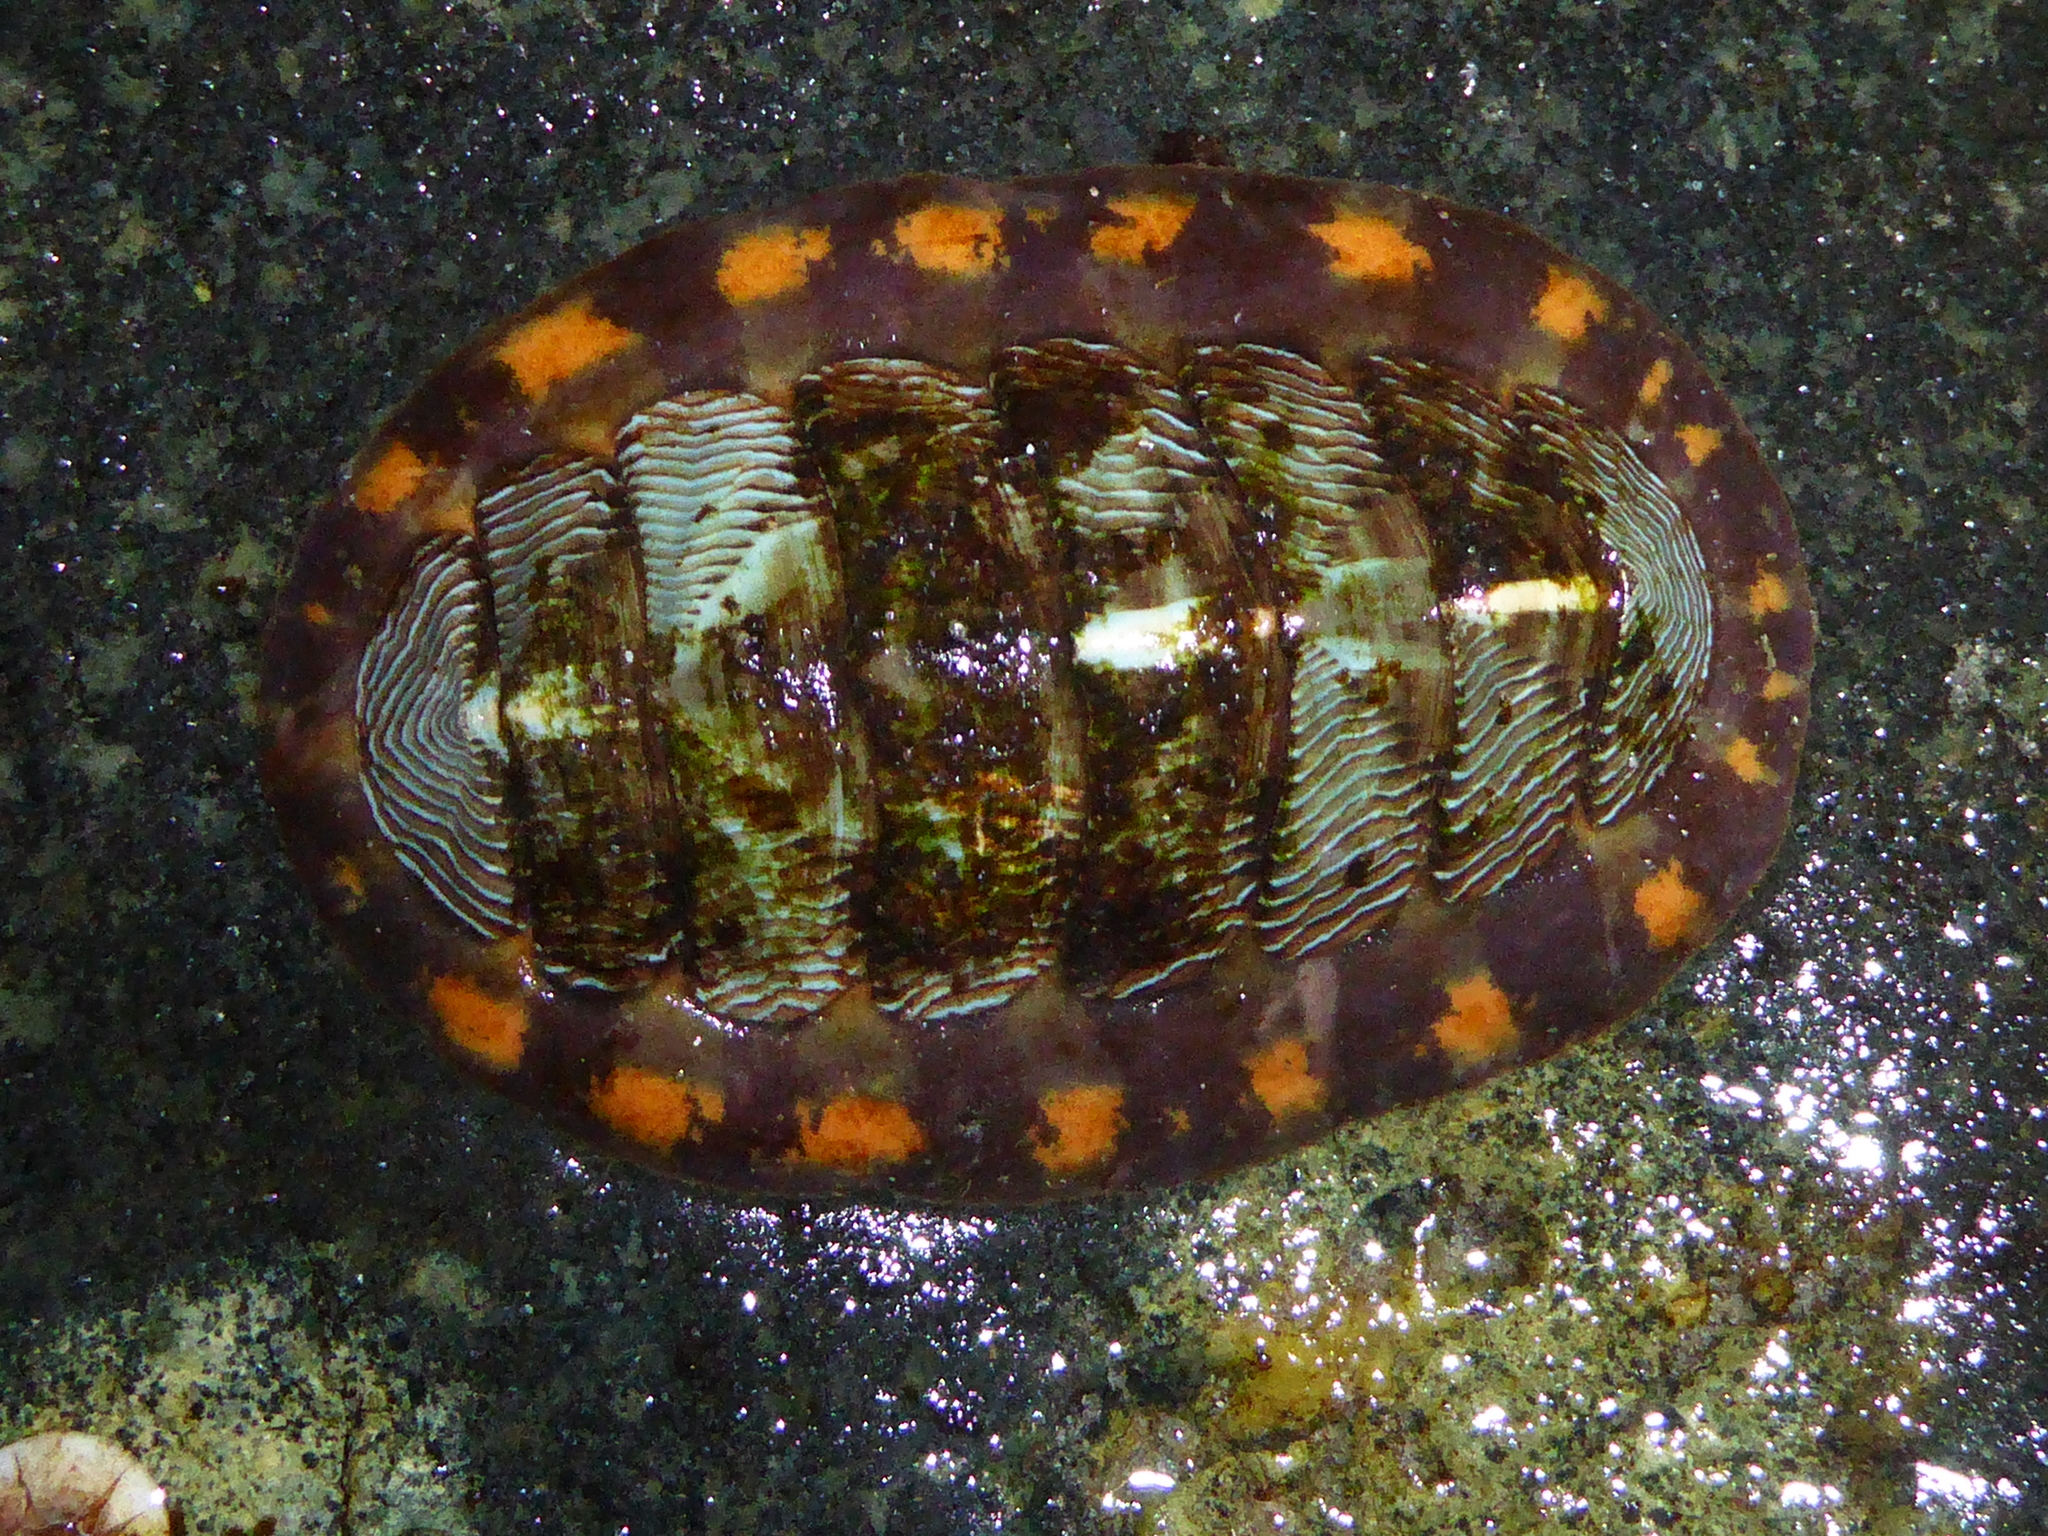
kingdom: Animalia
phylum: Mollusca
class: Polyplacophora
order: Chitonida
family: Tonicellidae
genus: Tonicella
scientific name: Tonicella lineata
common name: Lined chiton
